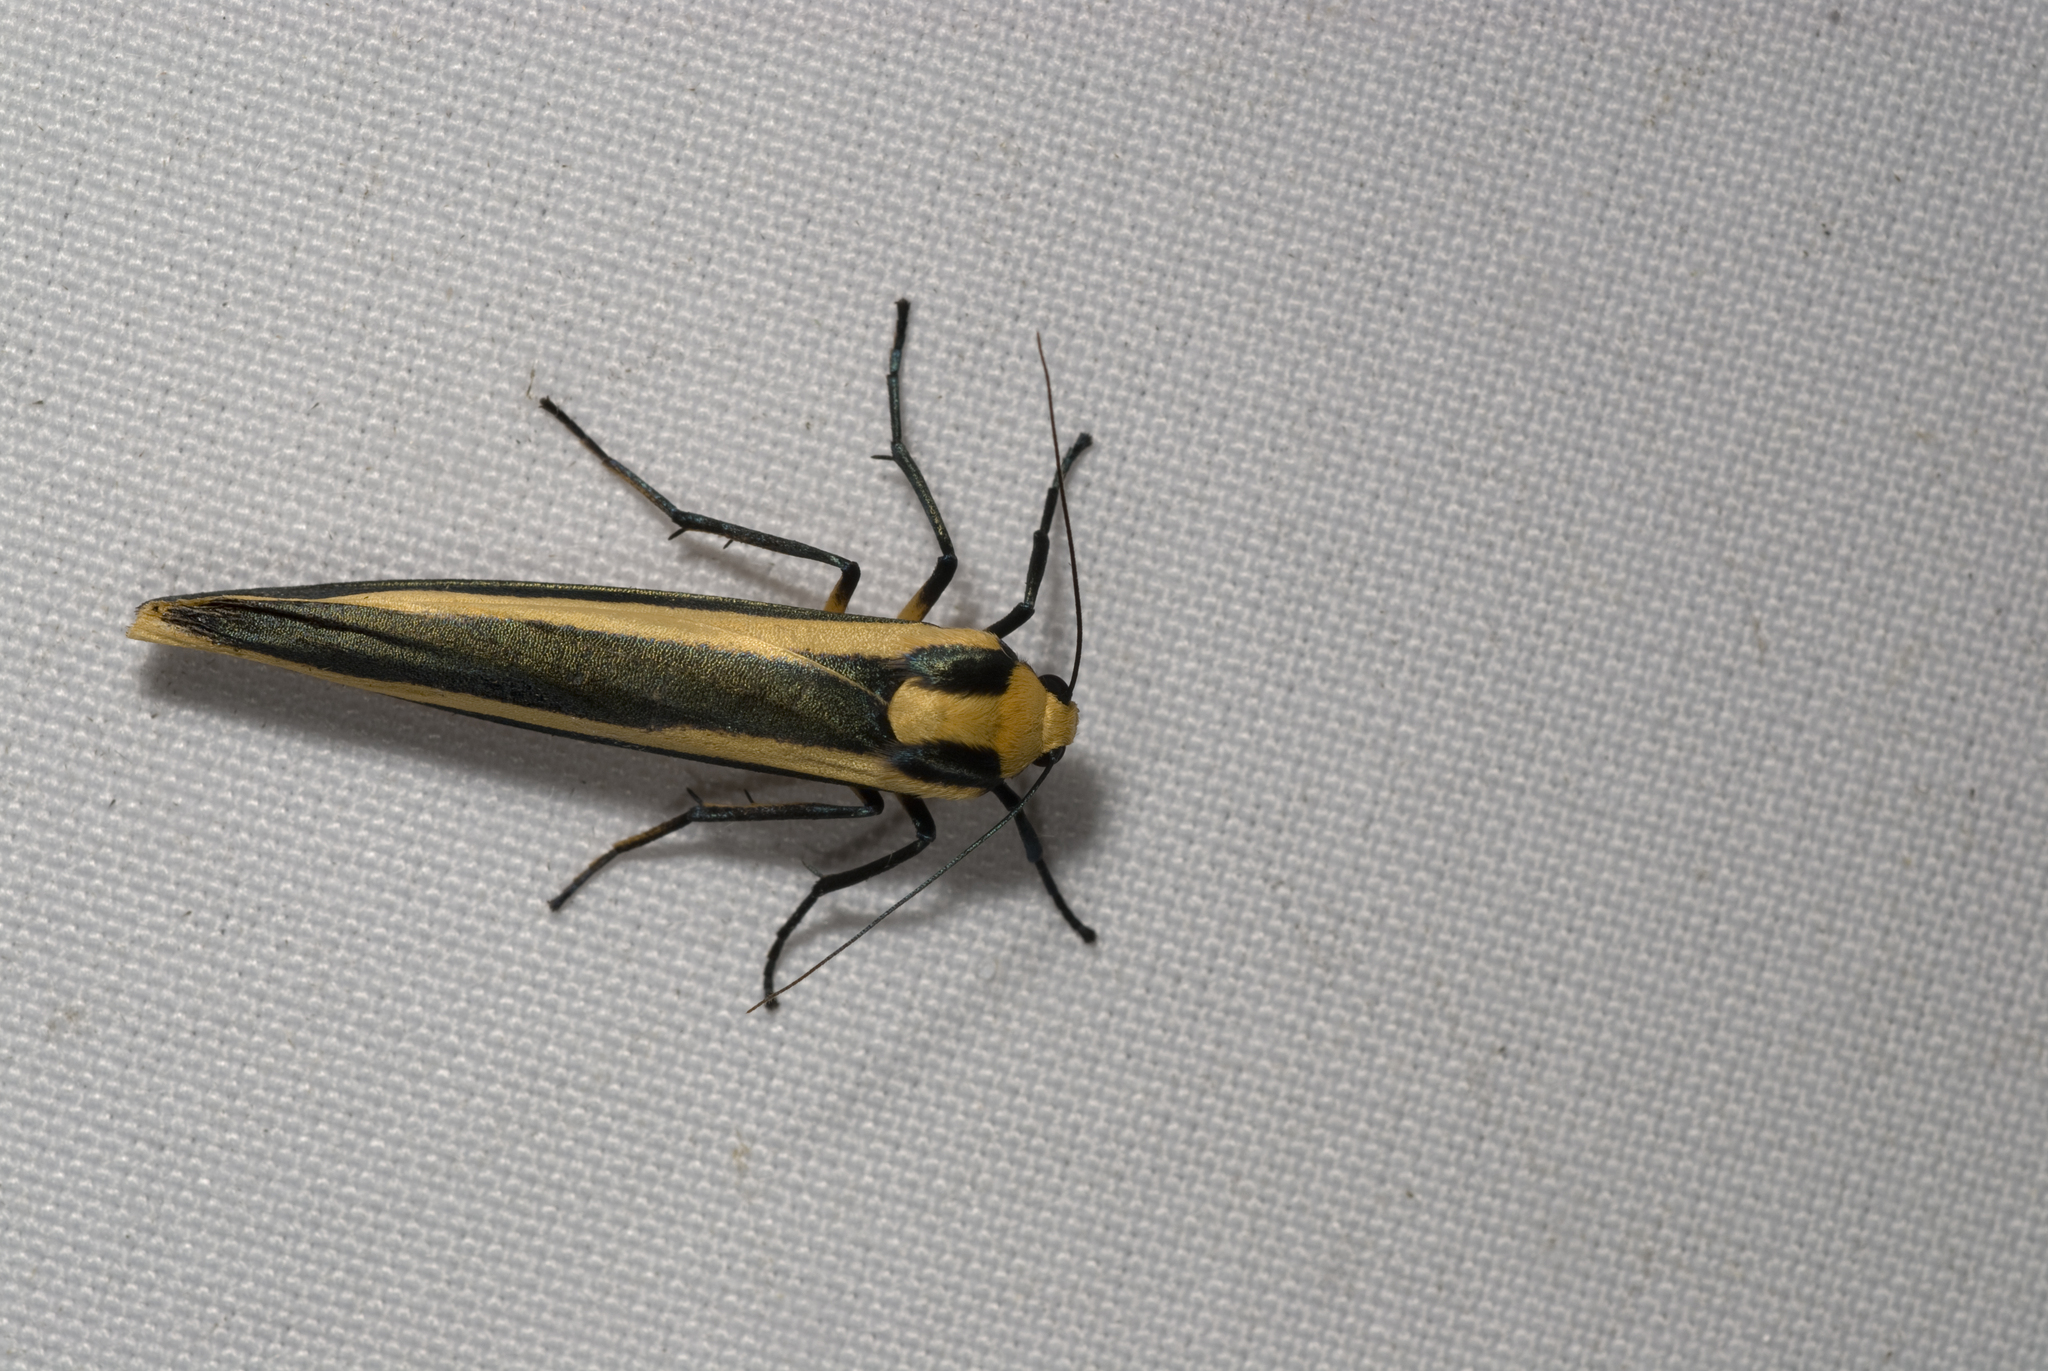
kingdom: Animalia
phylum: Arthropoda
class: Insecta
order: Lepidoptera
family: Erebidae
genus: Chrysorabdia
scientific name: Chrysorabdia vilemani
